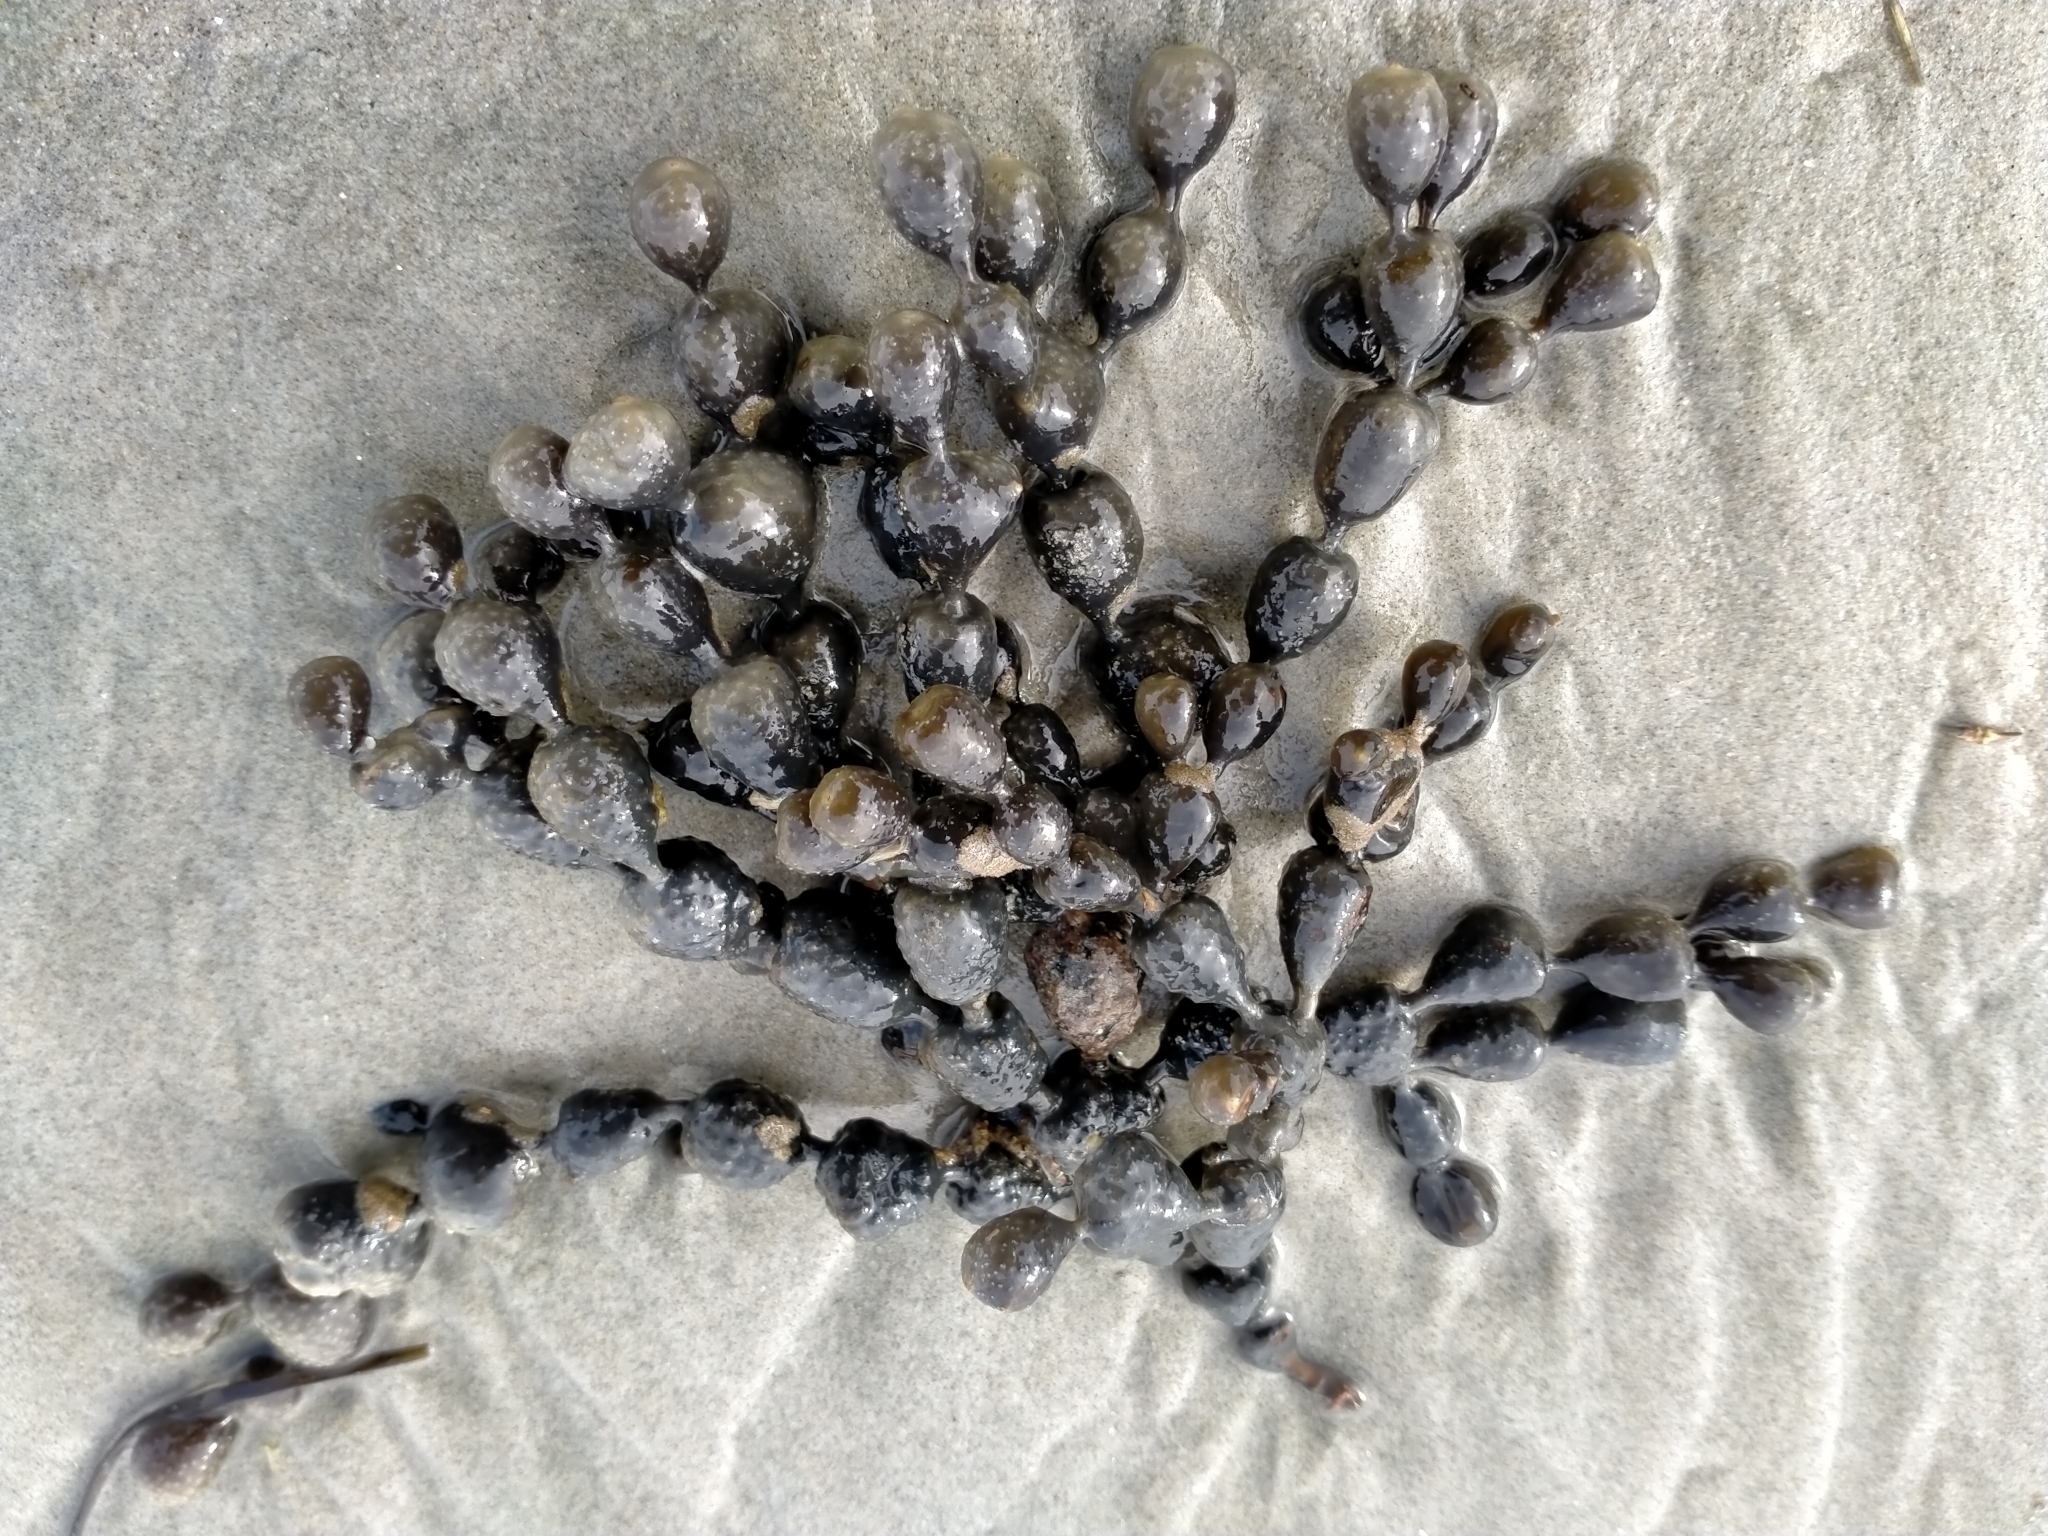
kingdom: Chromista
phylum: Ochrophyta
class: Phaeophyceae
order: Fucales
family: Hormosiraceae
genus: Hormosira
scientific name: Hormosira banksii
